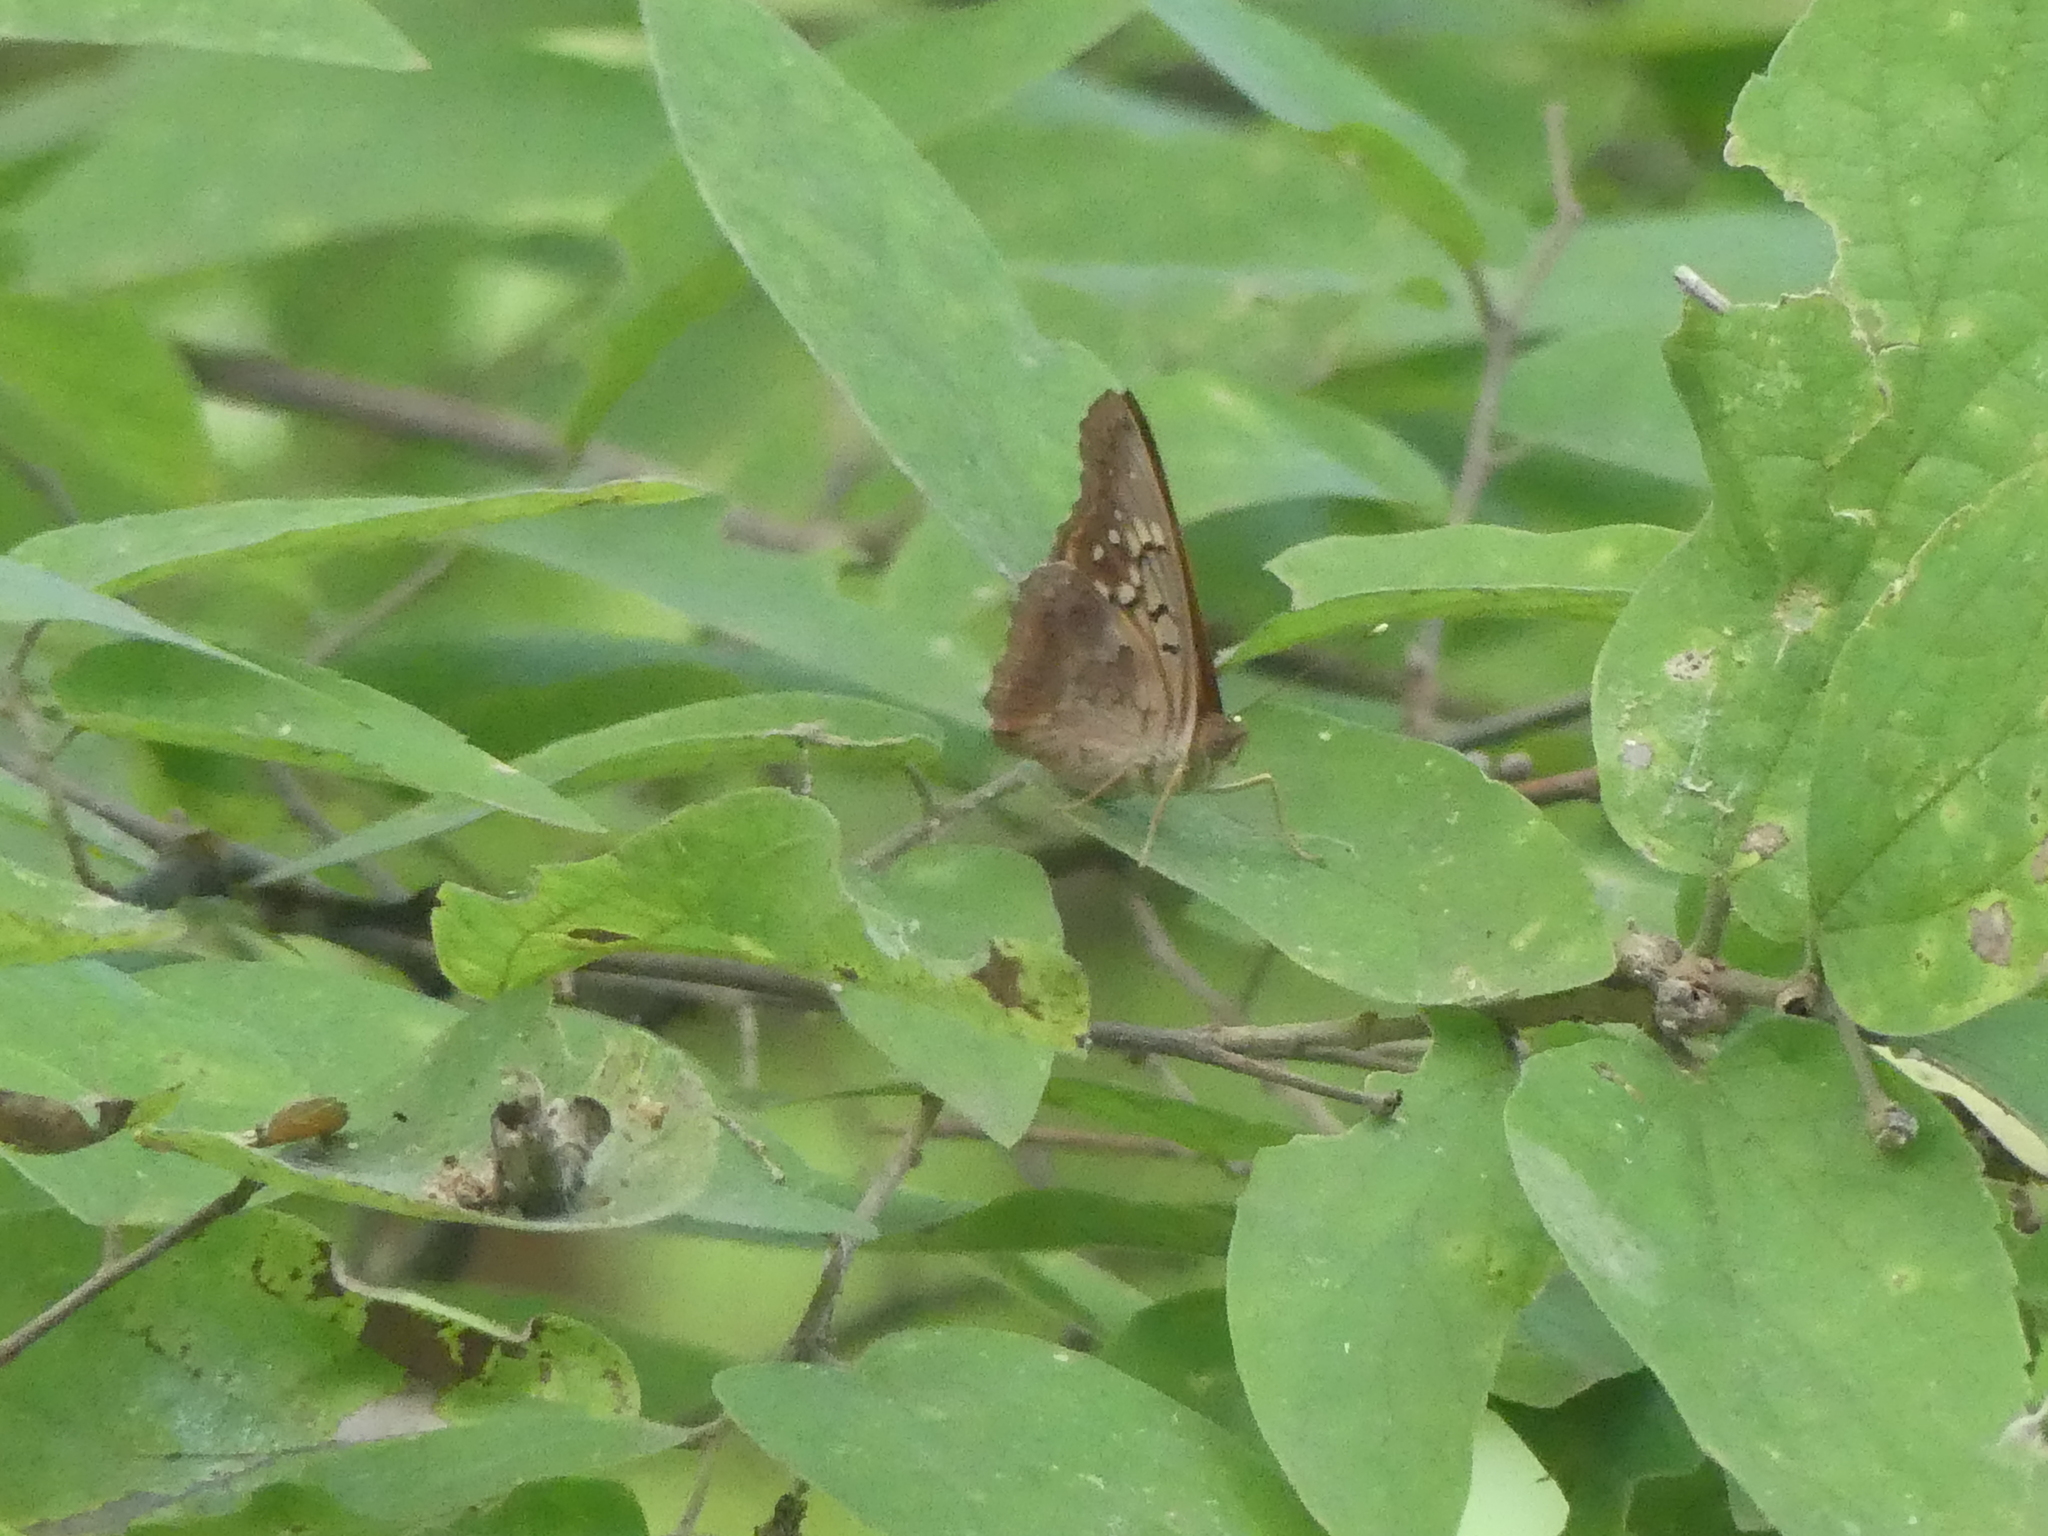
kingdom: Animalia
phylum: Arthropoda
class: Insecta
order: Lepidoptera
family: Nymphalidae
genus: Asterocampa
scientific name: Asterocampa clyton
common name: Tawny emperor
